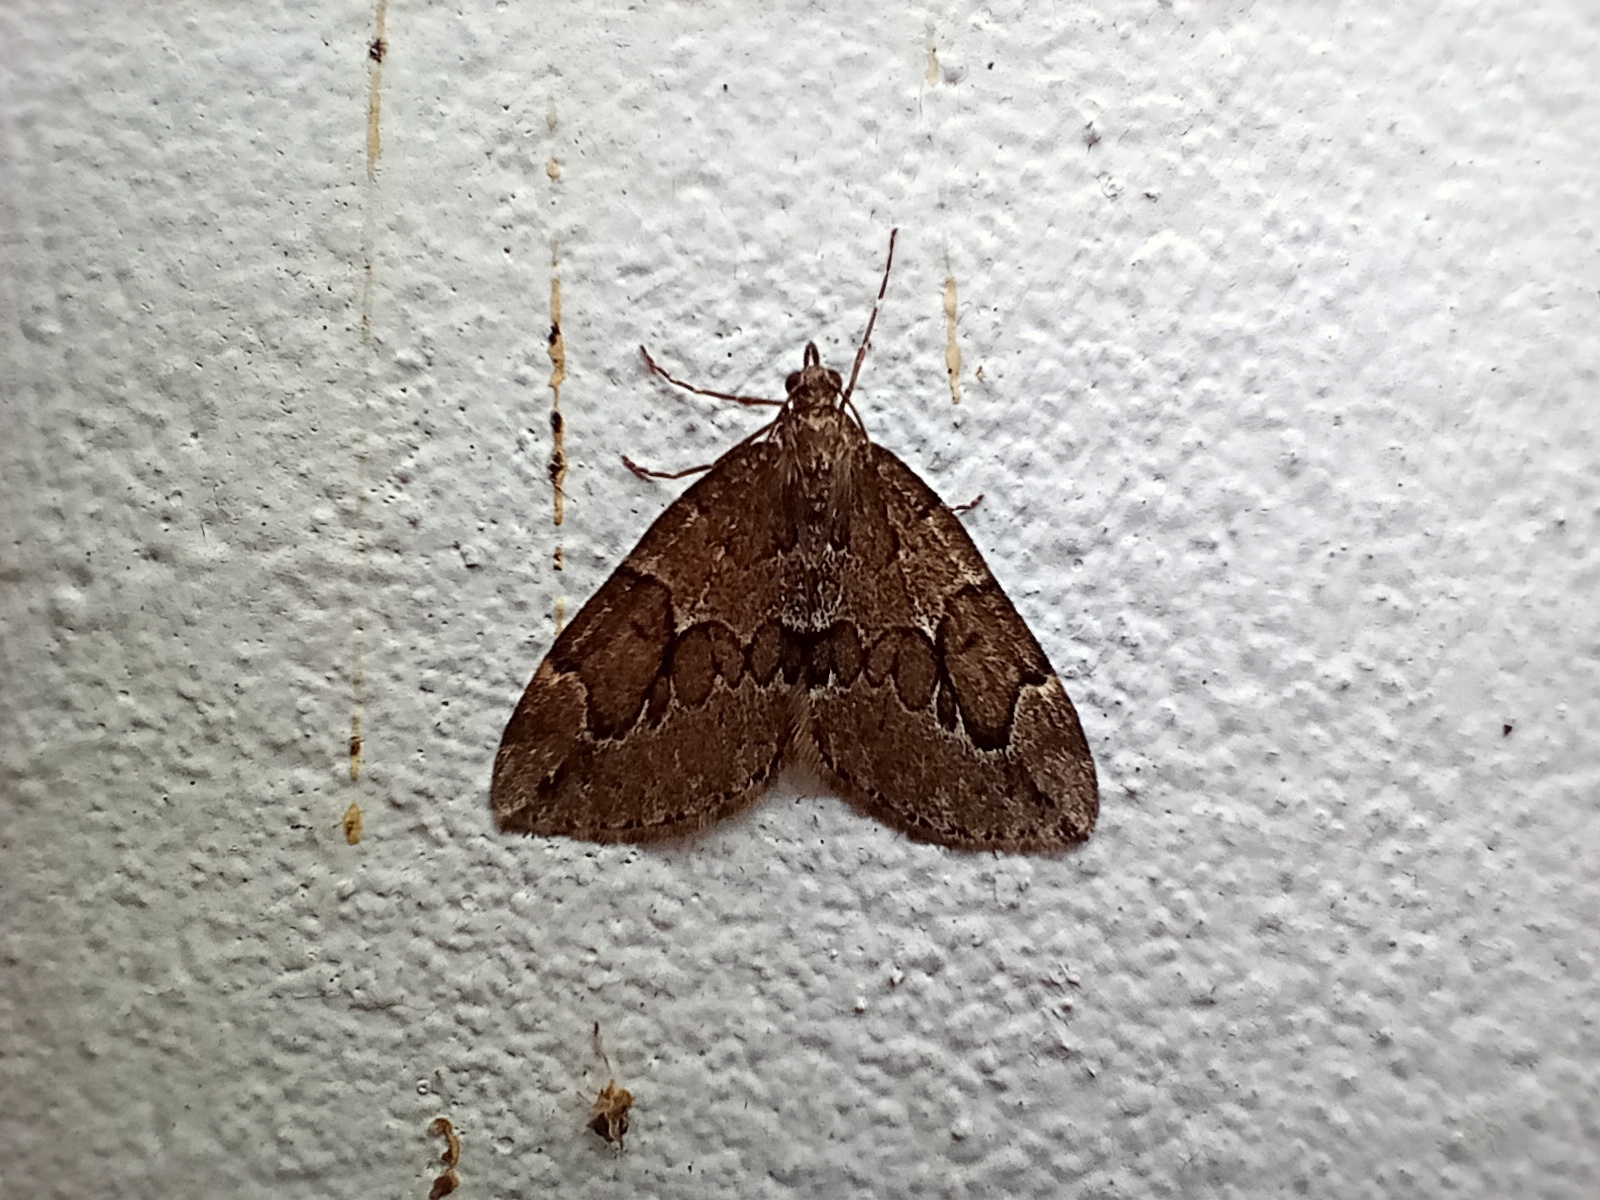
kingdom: Animalia
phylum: Arthropoda
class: Insecta
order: Lepidoptera
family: Geometridae
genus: Thera
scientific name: Thera juniperata
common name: Juniper carpet
